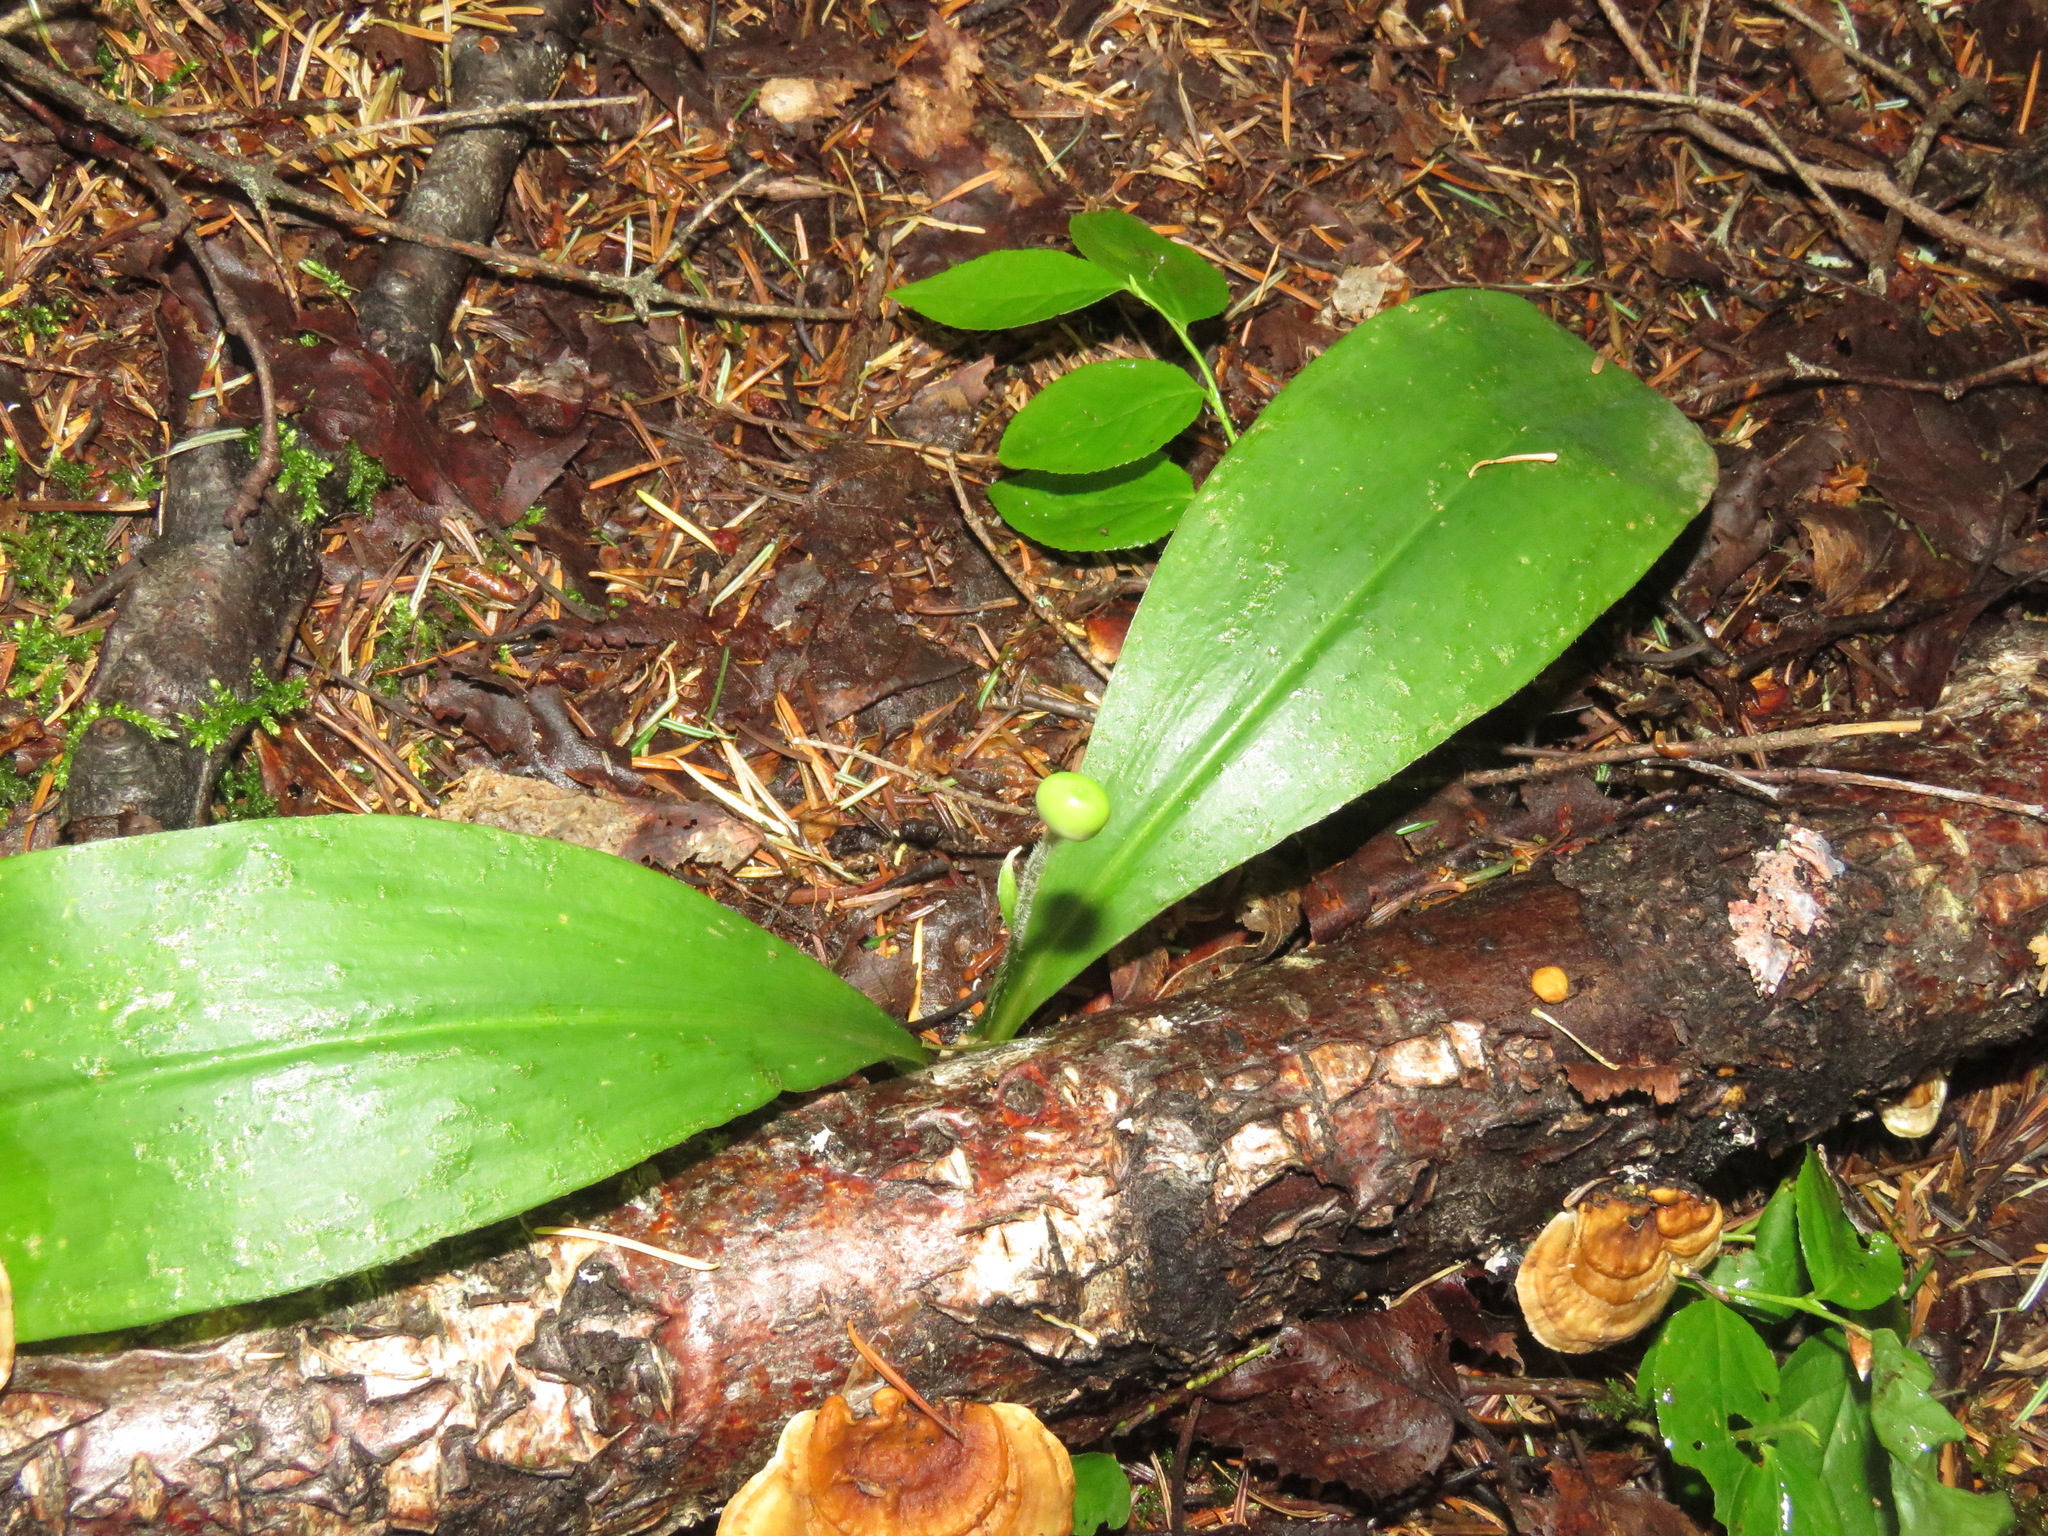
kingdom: Plantae
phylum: Tracheophyta
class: Liliopsida
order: Liliales
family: Liliaceae
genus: Clintonia
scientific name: Clintonia uniflora
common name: Queen's cup
